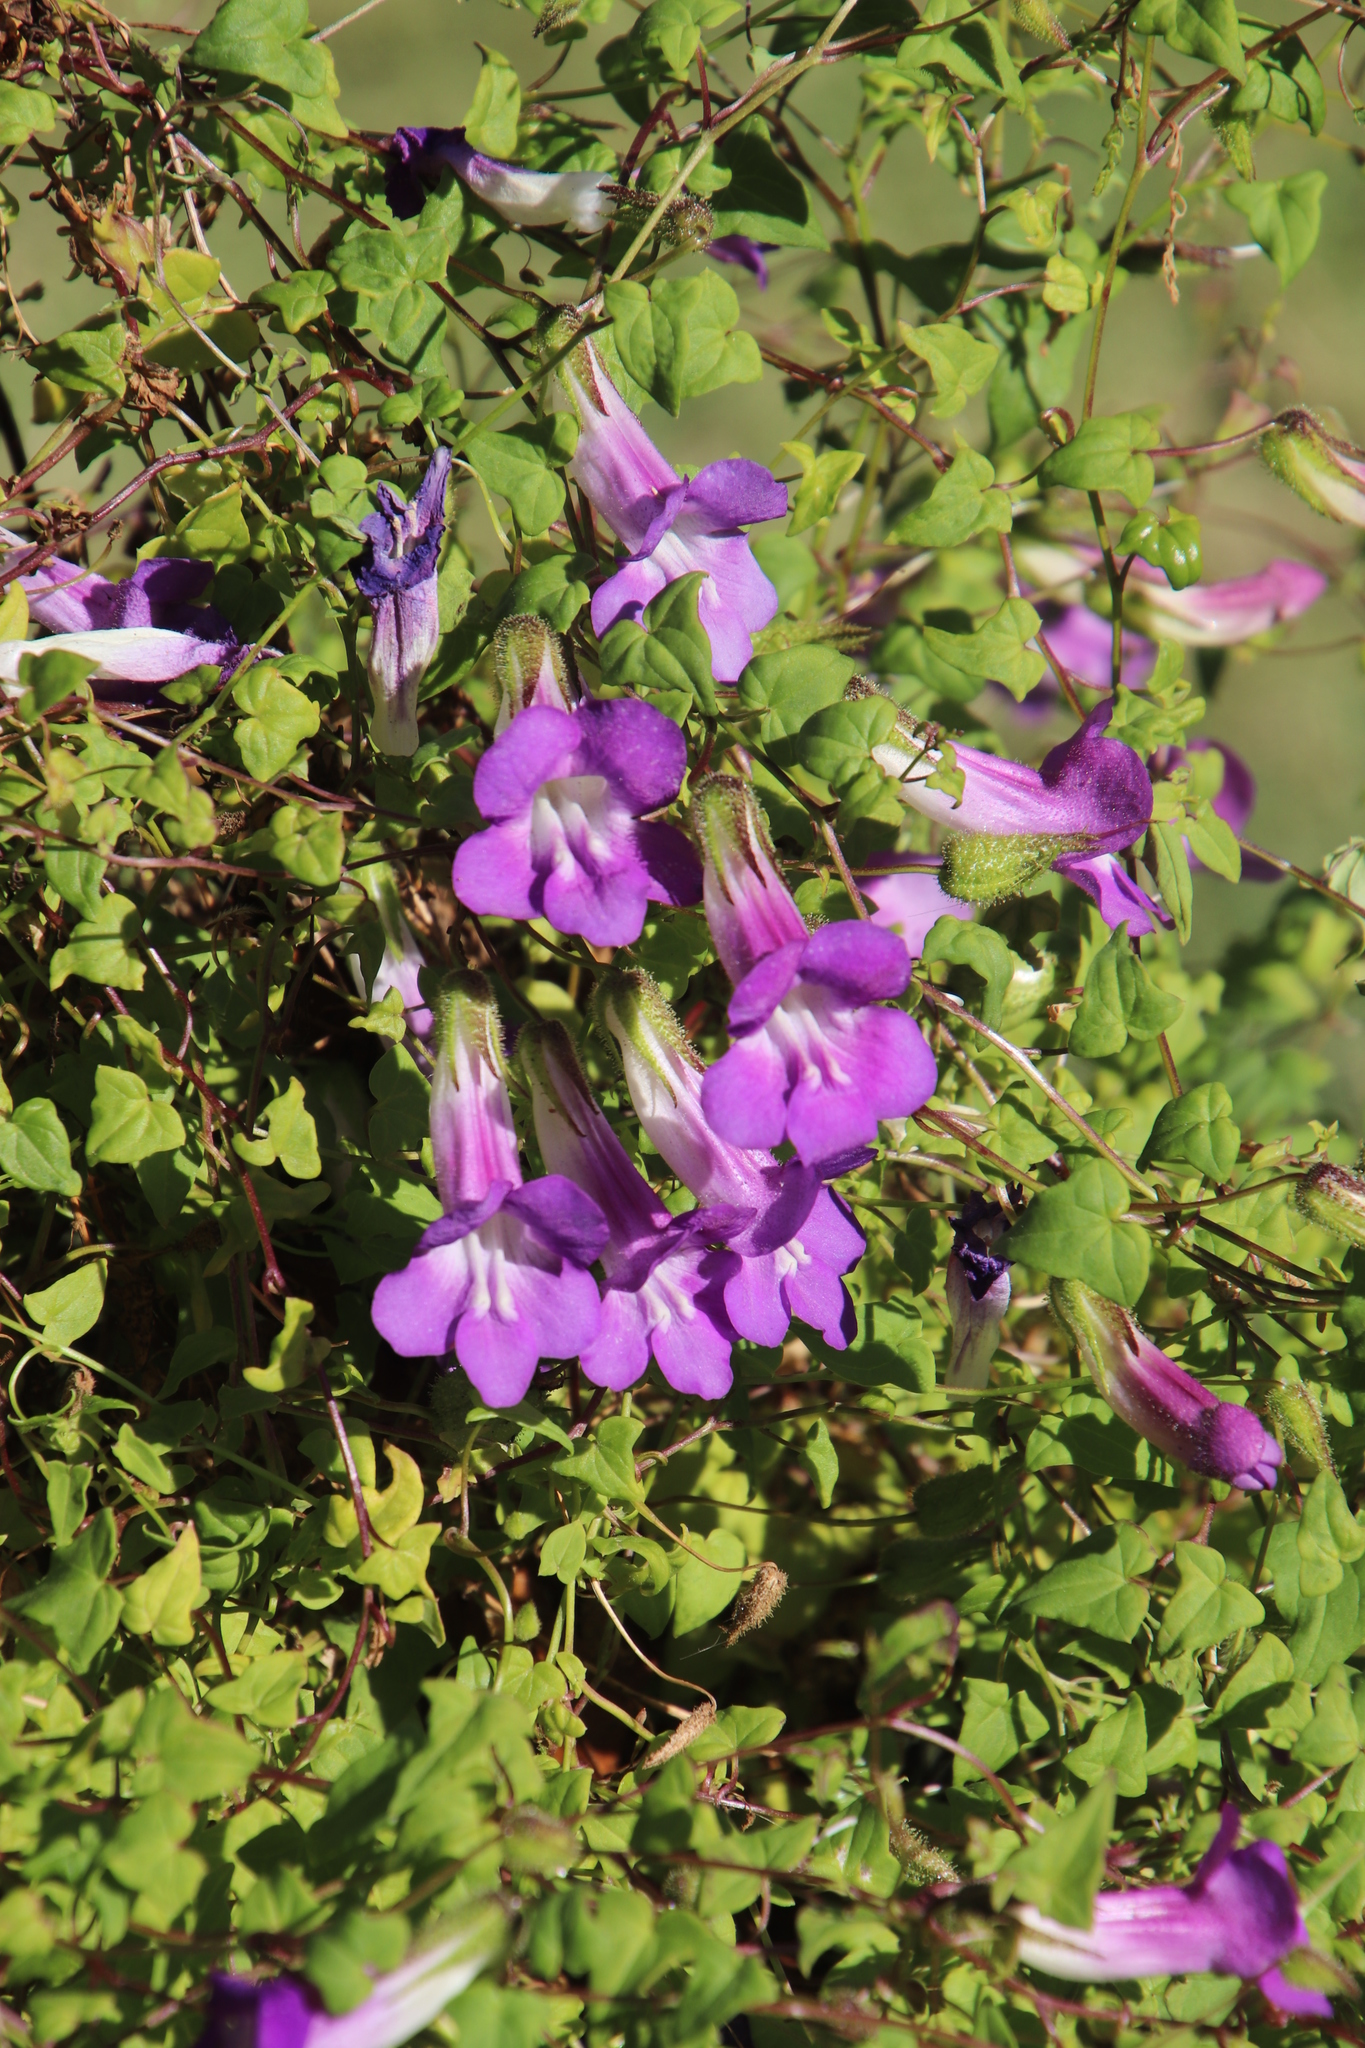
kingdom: Plantae
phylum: Tracheophyta
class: Magnoliopsida
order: Lamiales
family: Plantaginaceae
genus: Maurandya
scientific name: Maurandya barclayana
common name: Mexican viper
